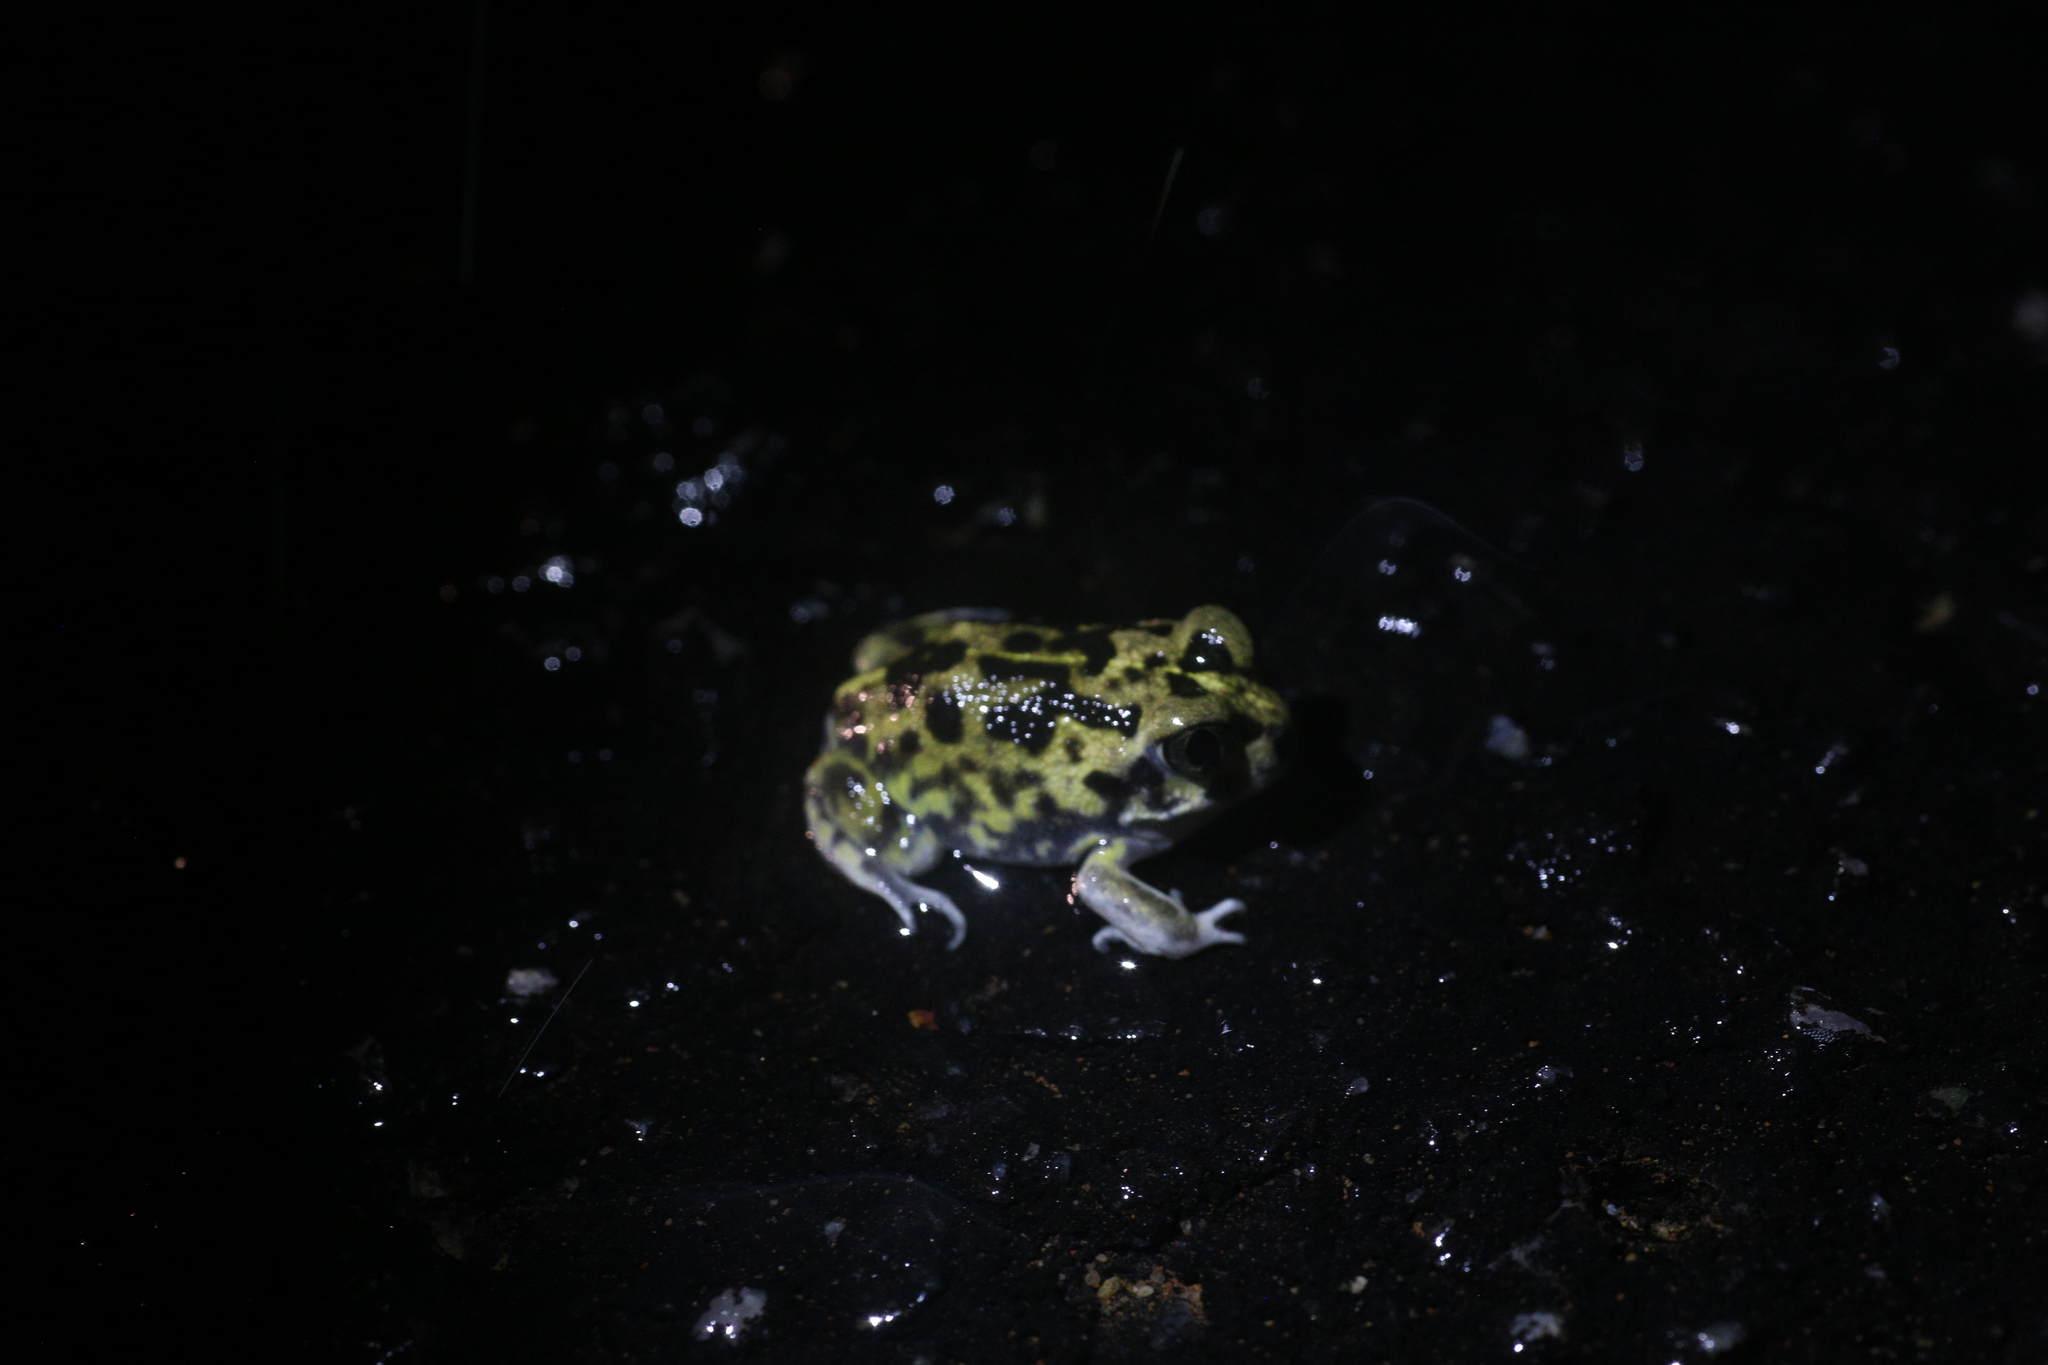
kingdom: Animalia
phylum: Chordata
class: Amphibia
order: Anura
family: Limnodynastidae
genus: Neobatrachus
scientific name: Neobatrachus kunapalari
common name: Kunapalari frog
